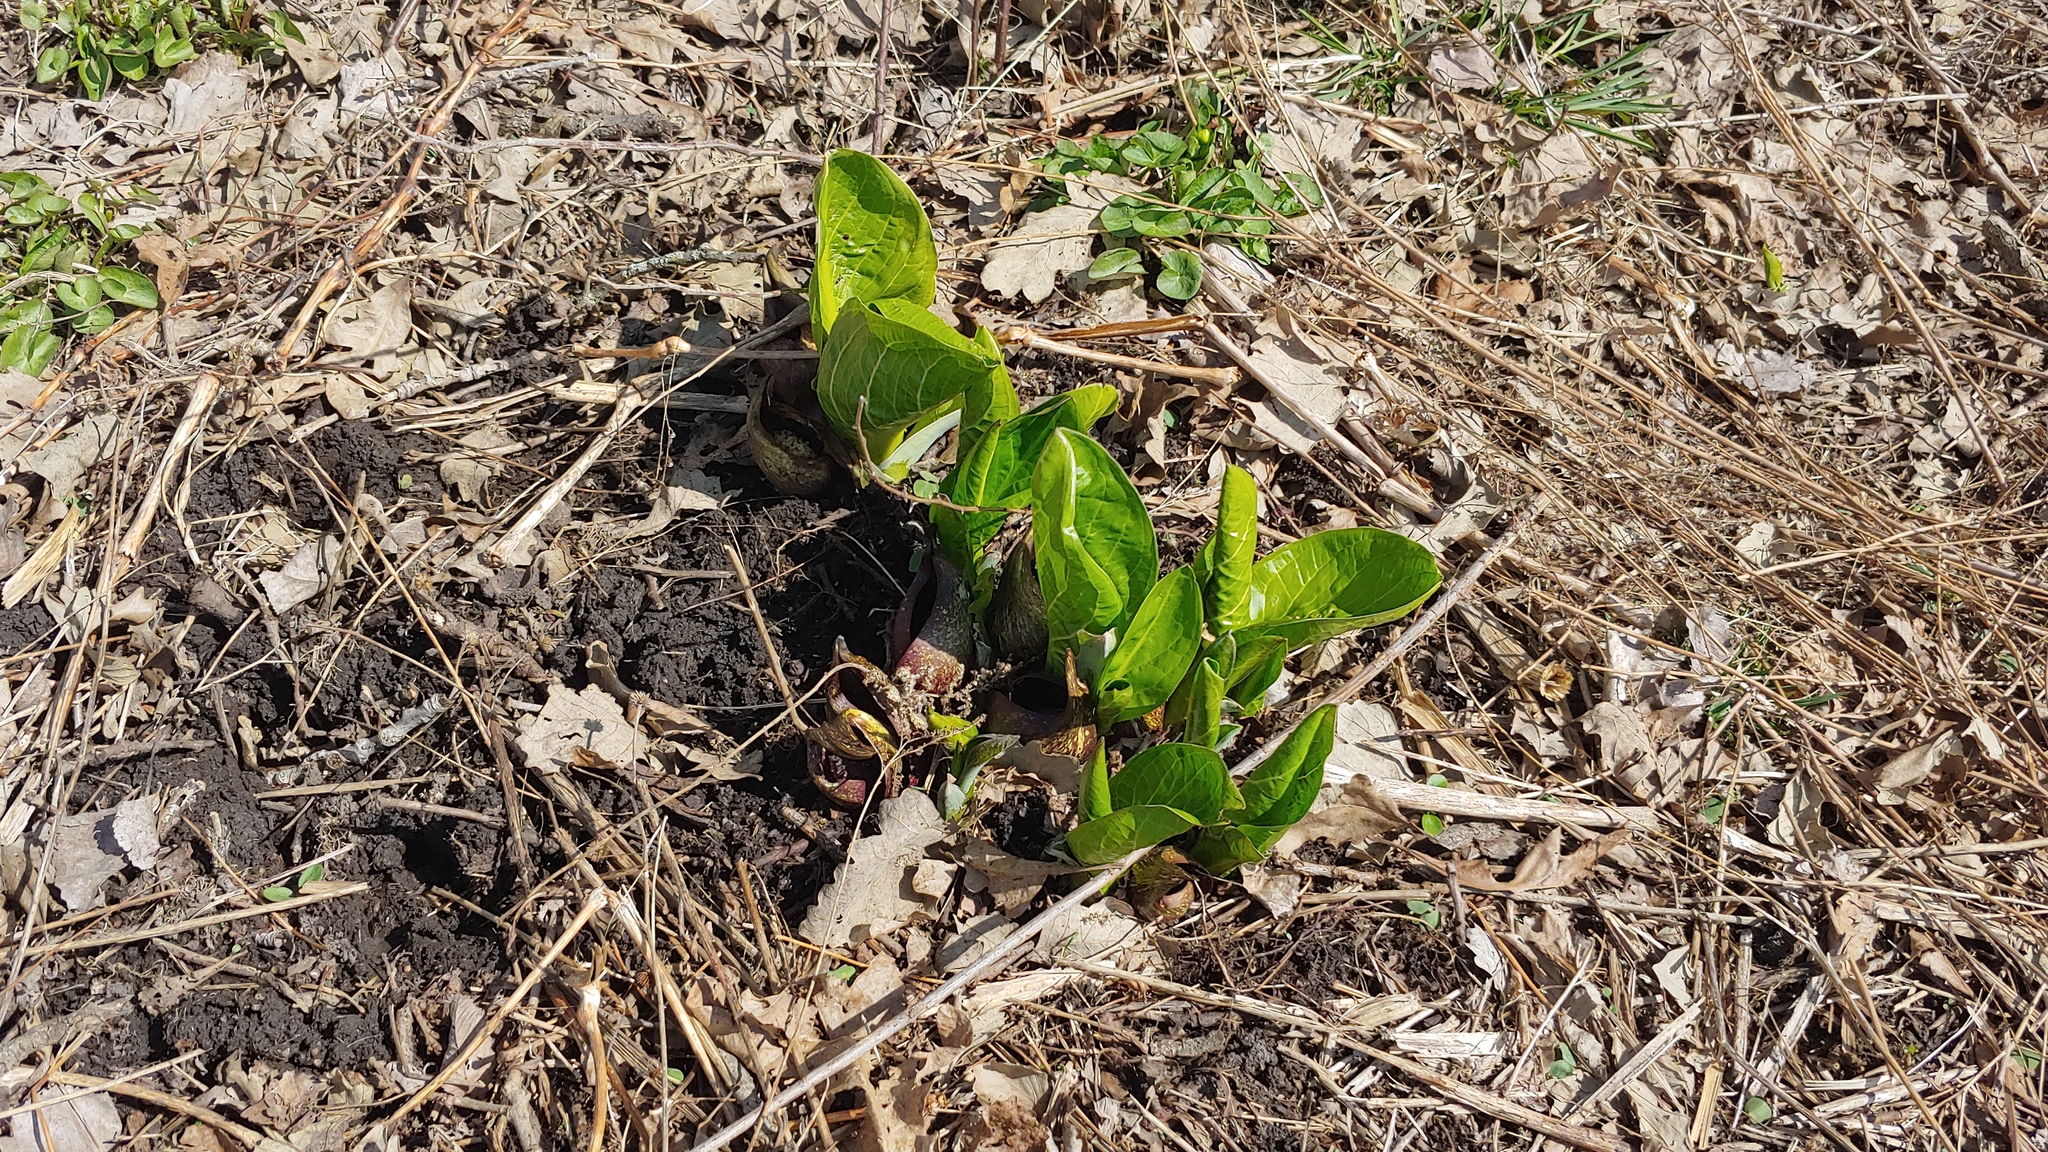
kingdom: Plantae
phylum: Tracheophyta
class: Liliopsida
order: Alismatales
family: Araceae
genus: Symplocarpus
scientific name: Symplocarpus foetidus
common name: Eastern skunk cabbage
